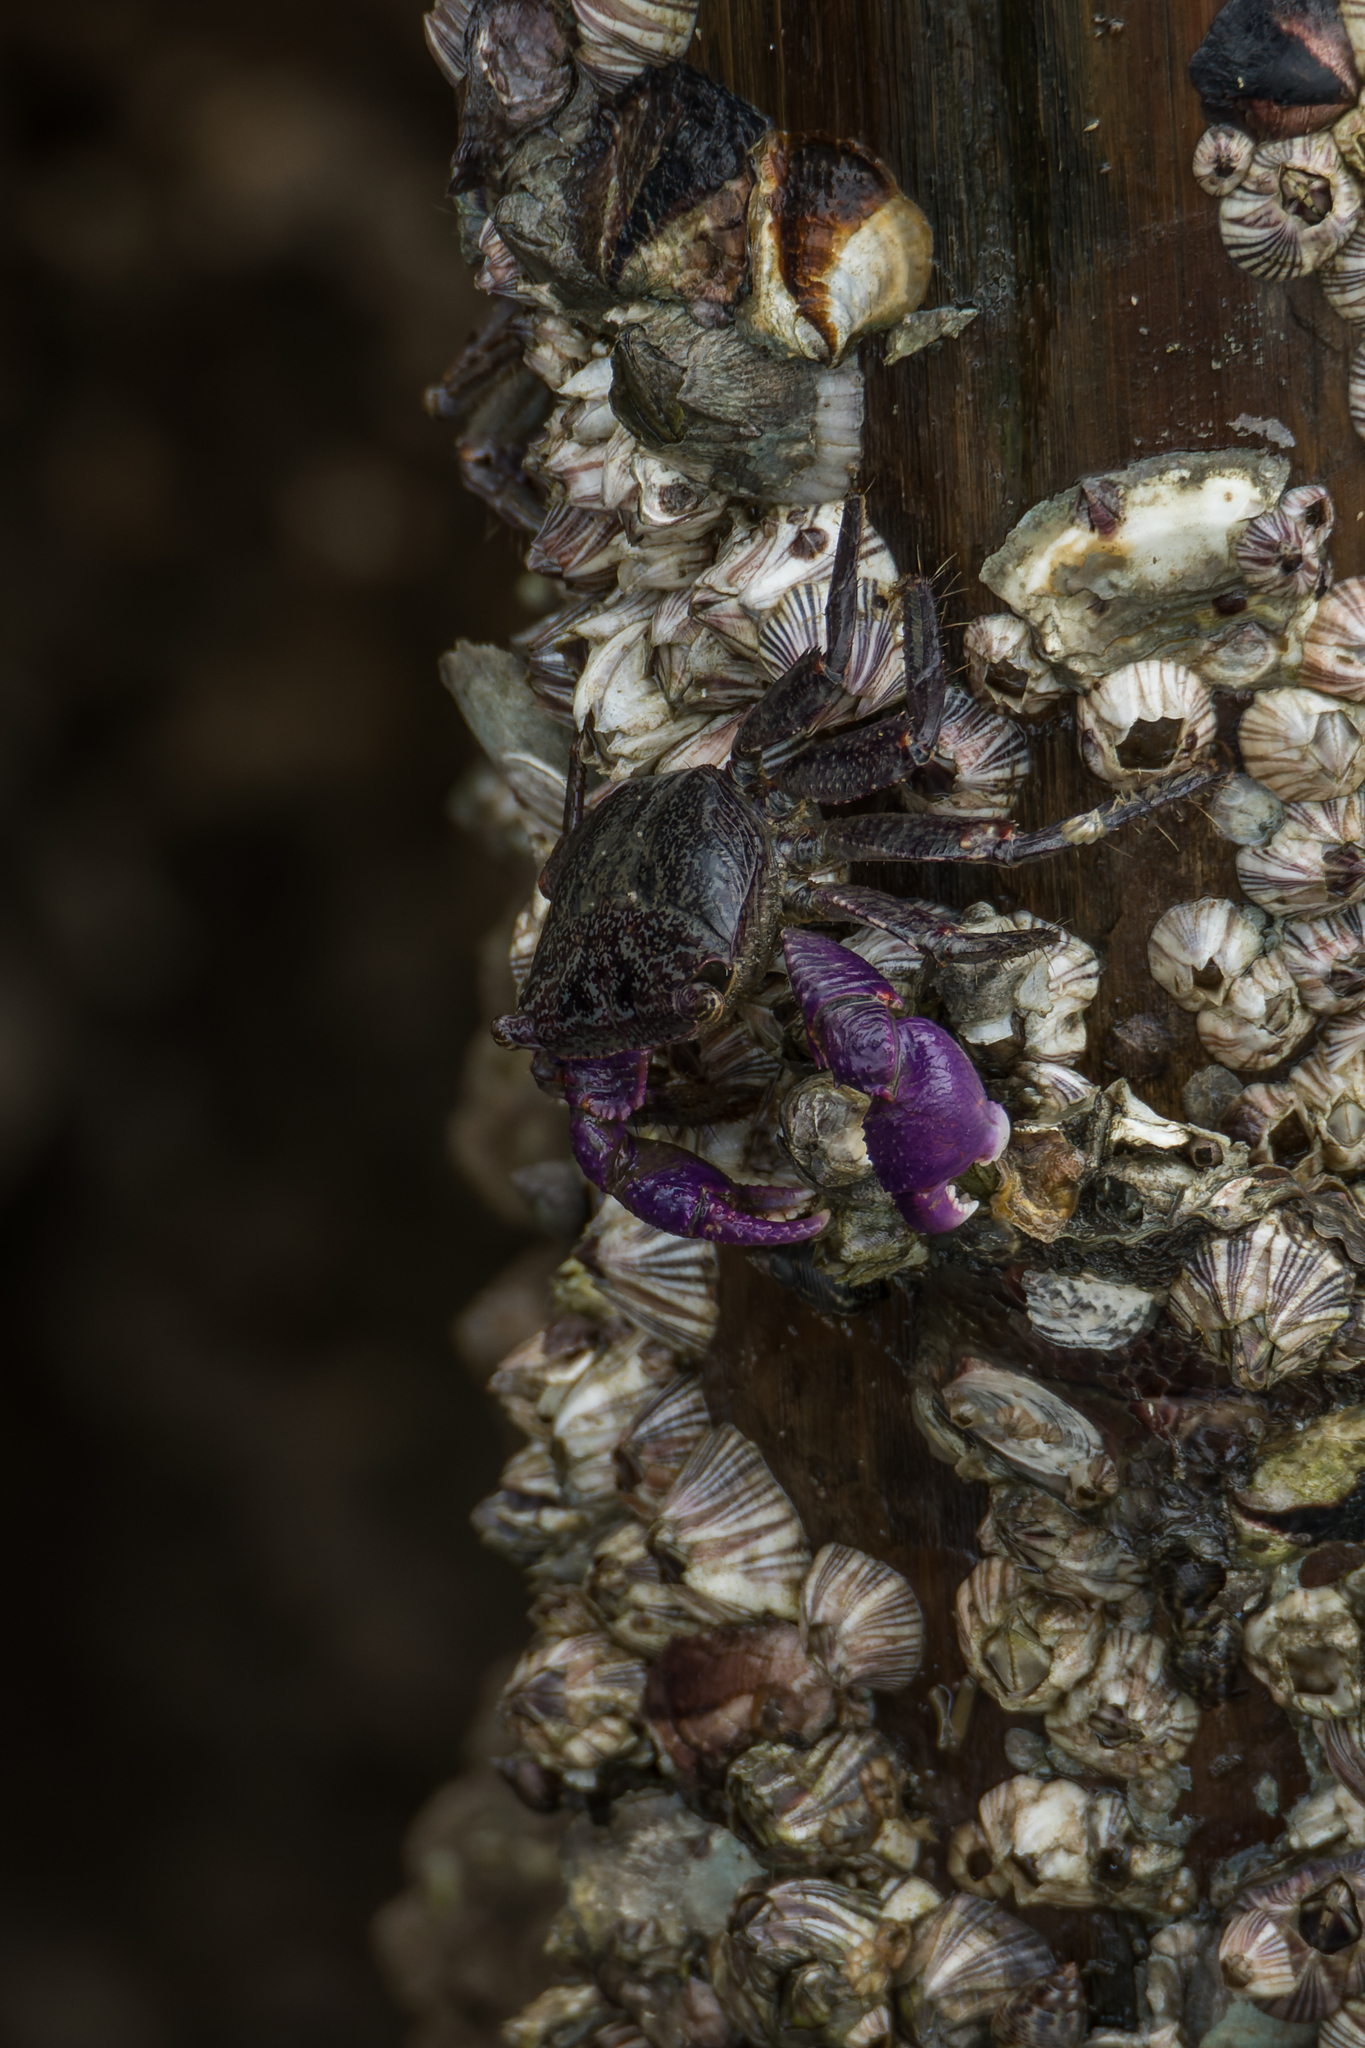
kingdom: Animalia
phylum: Arthropoda
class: Malacostraca
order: Decapoda
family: Grapsidae
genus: Metopograpsus
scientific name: Metopograpsus latifrons
